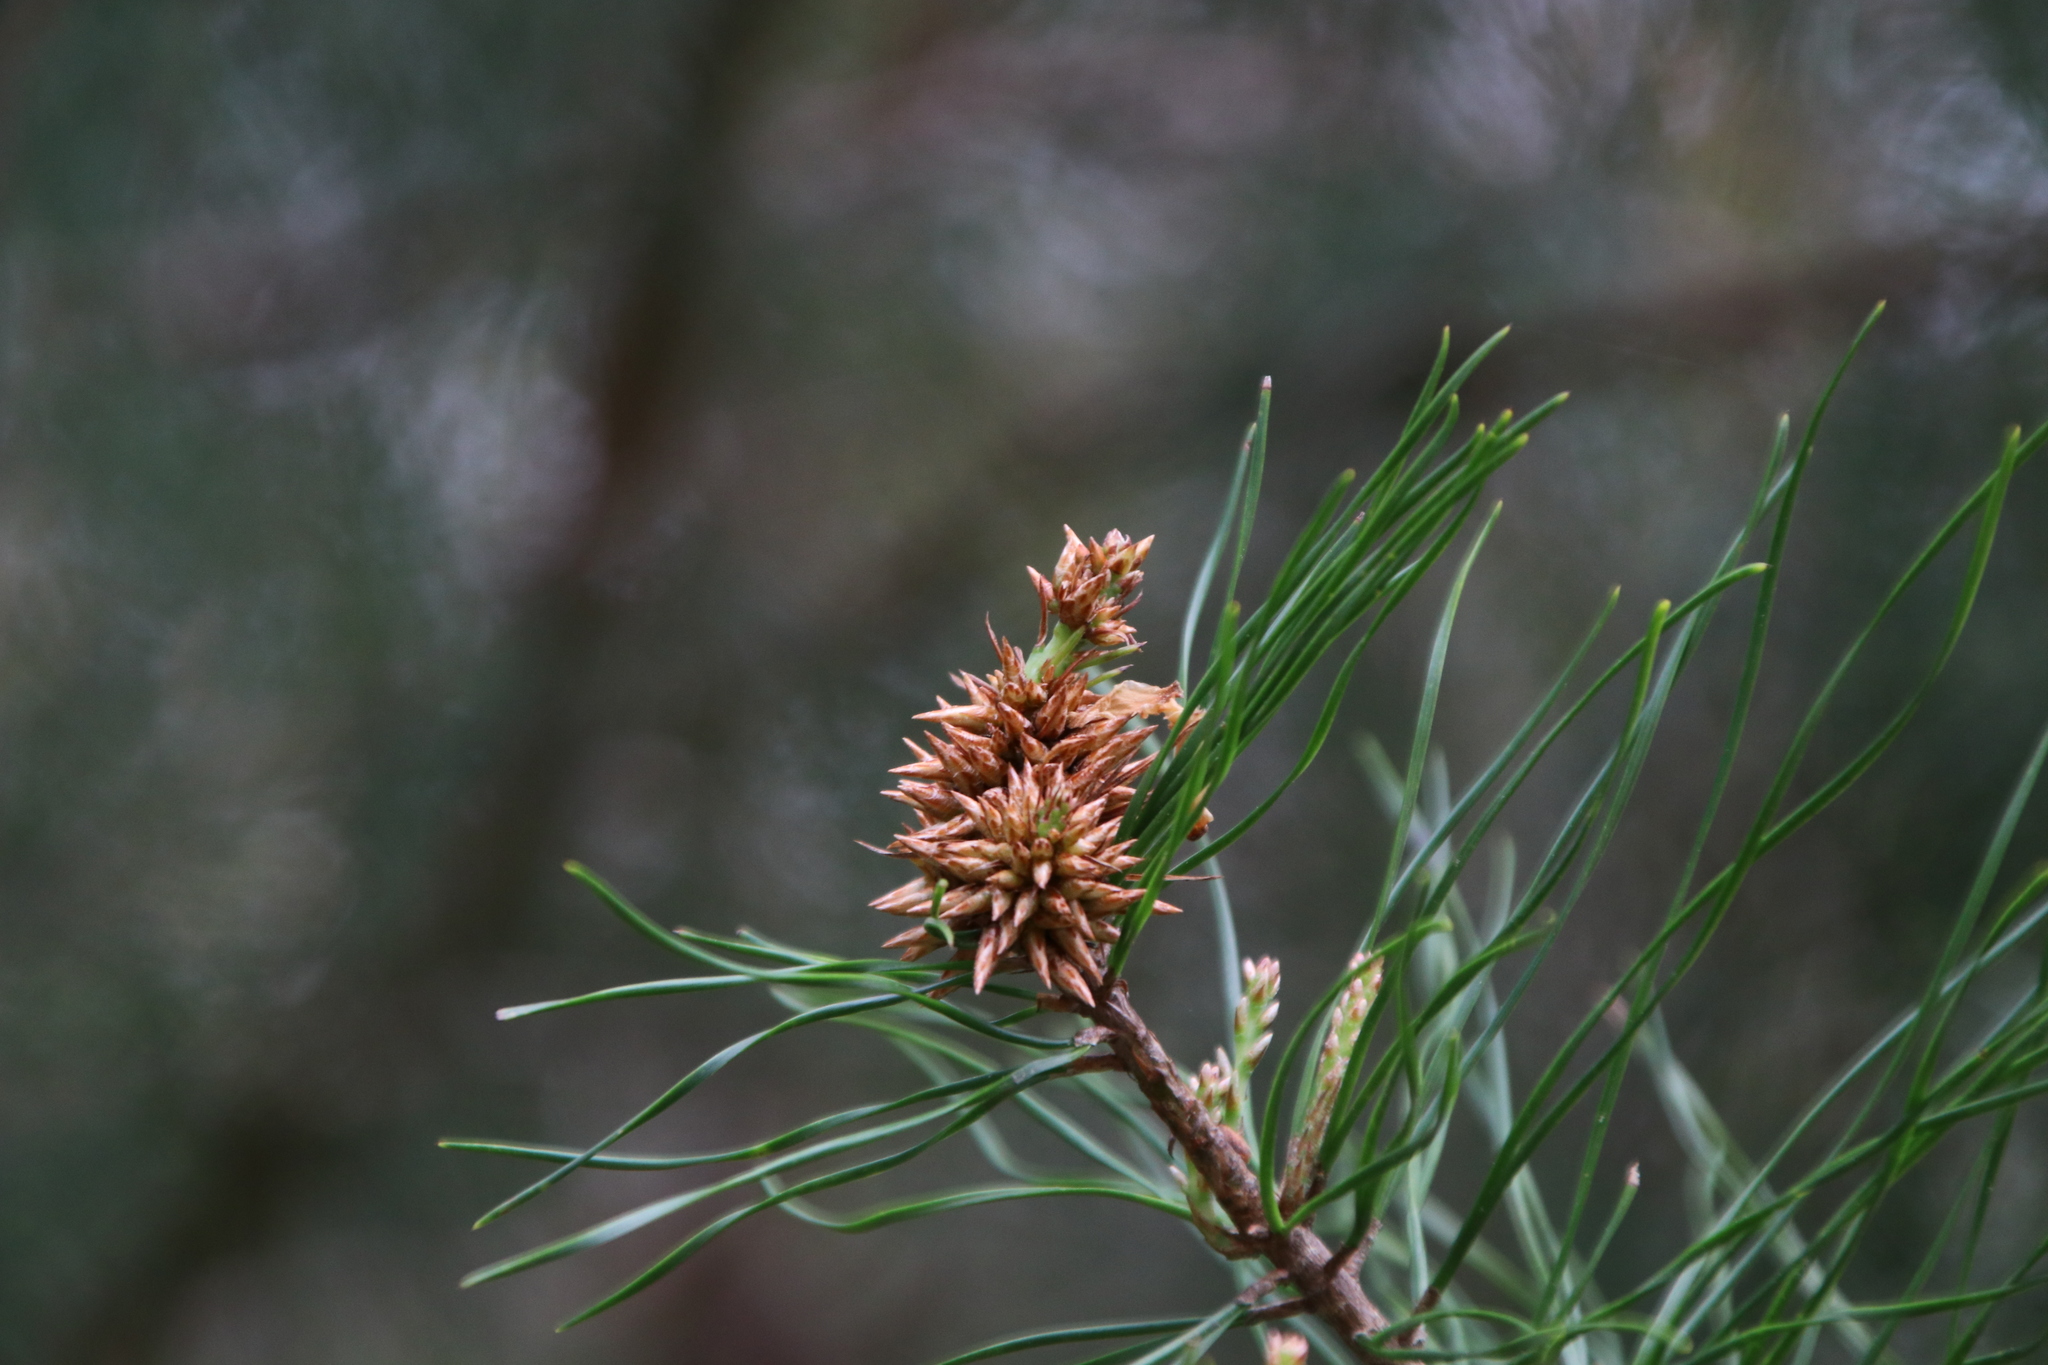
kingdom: Plantae
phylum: Tracheophyta
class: Pinopsida
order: Pinales
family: Pinaceae
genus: Pinus
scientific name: Pinus glabra
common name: Spruce pine
